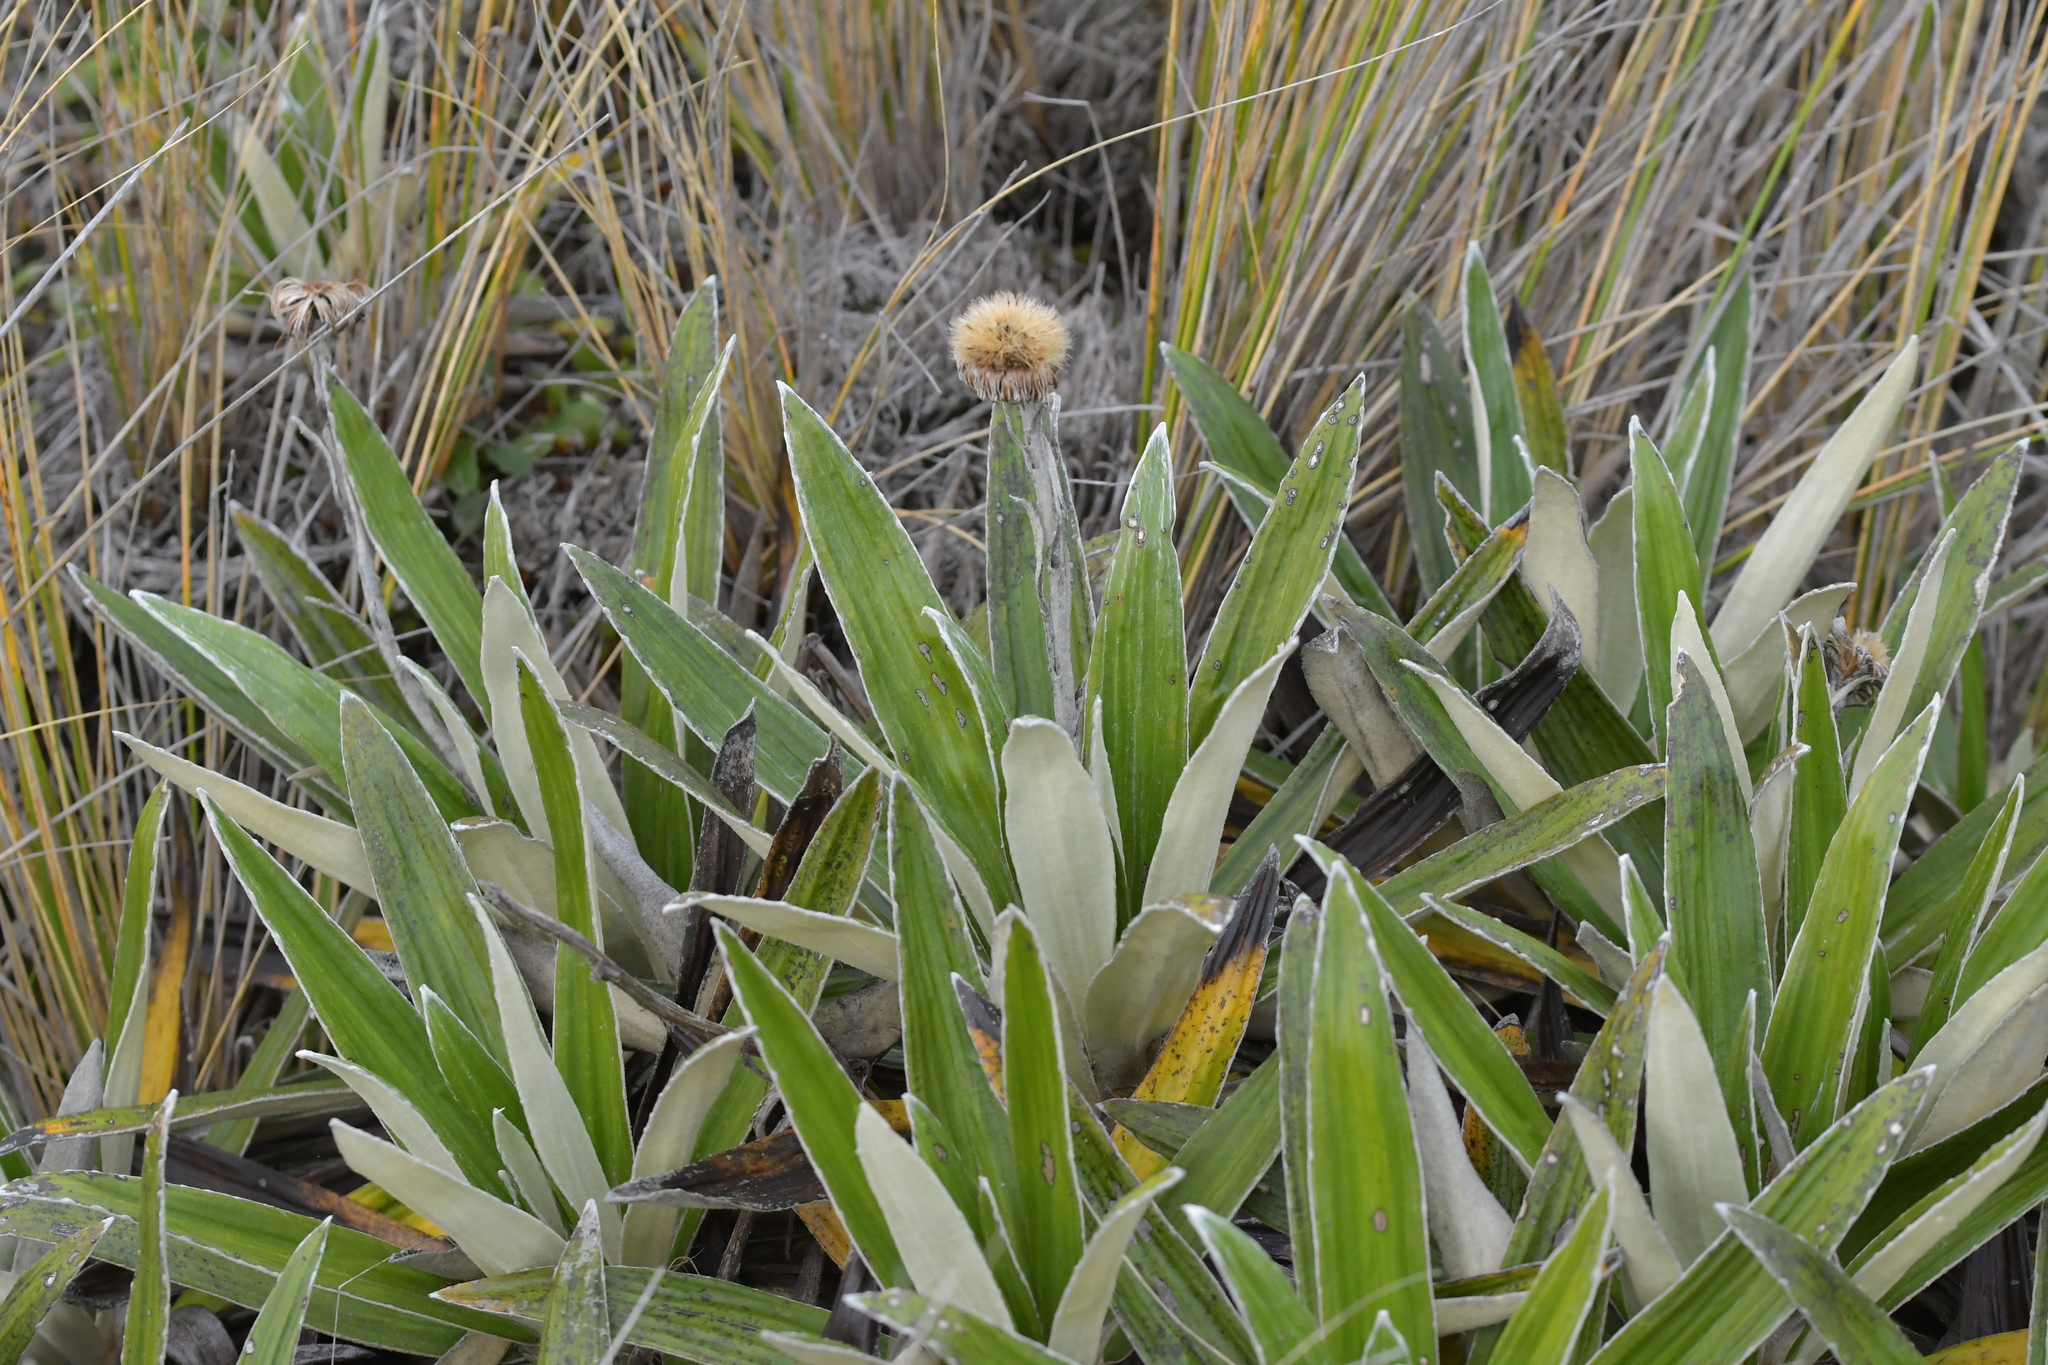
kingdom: Plantae
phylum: Tracheophyta
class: Magnoliopsida
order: Asterales
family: Asteraceae
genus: Celmisia
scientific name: Celmisia spectabilis
